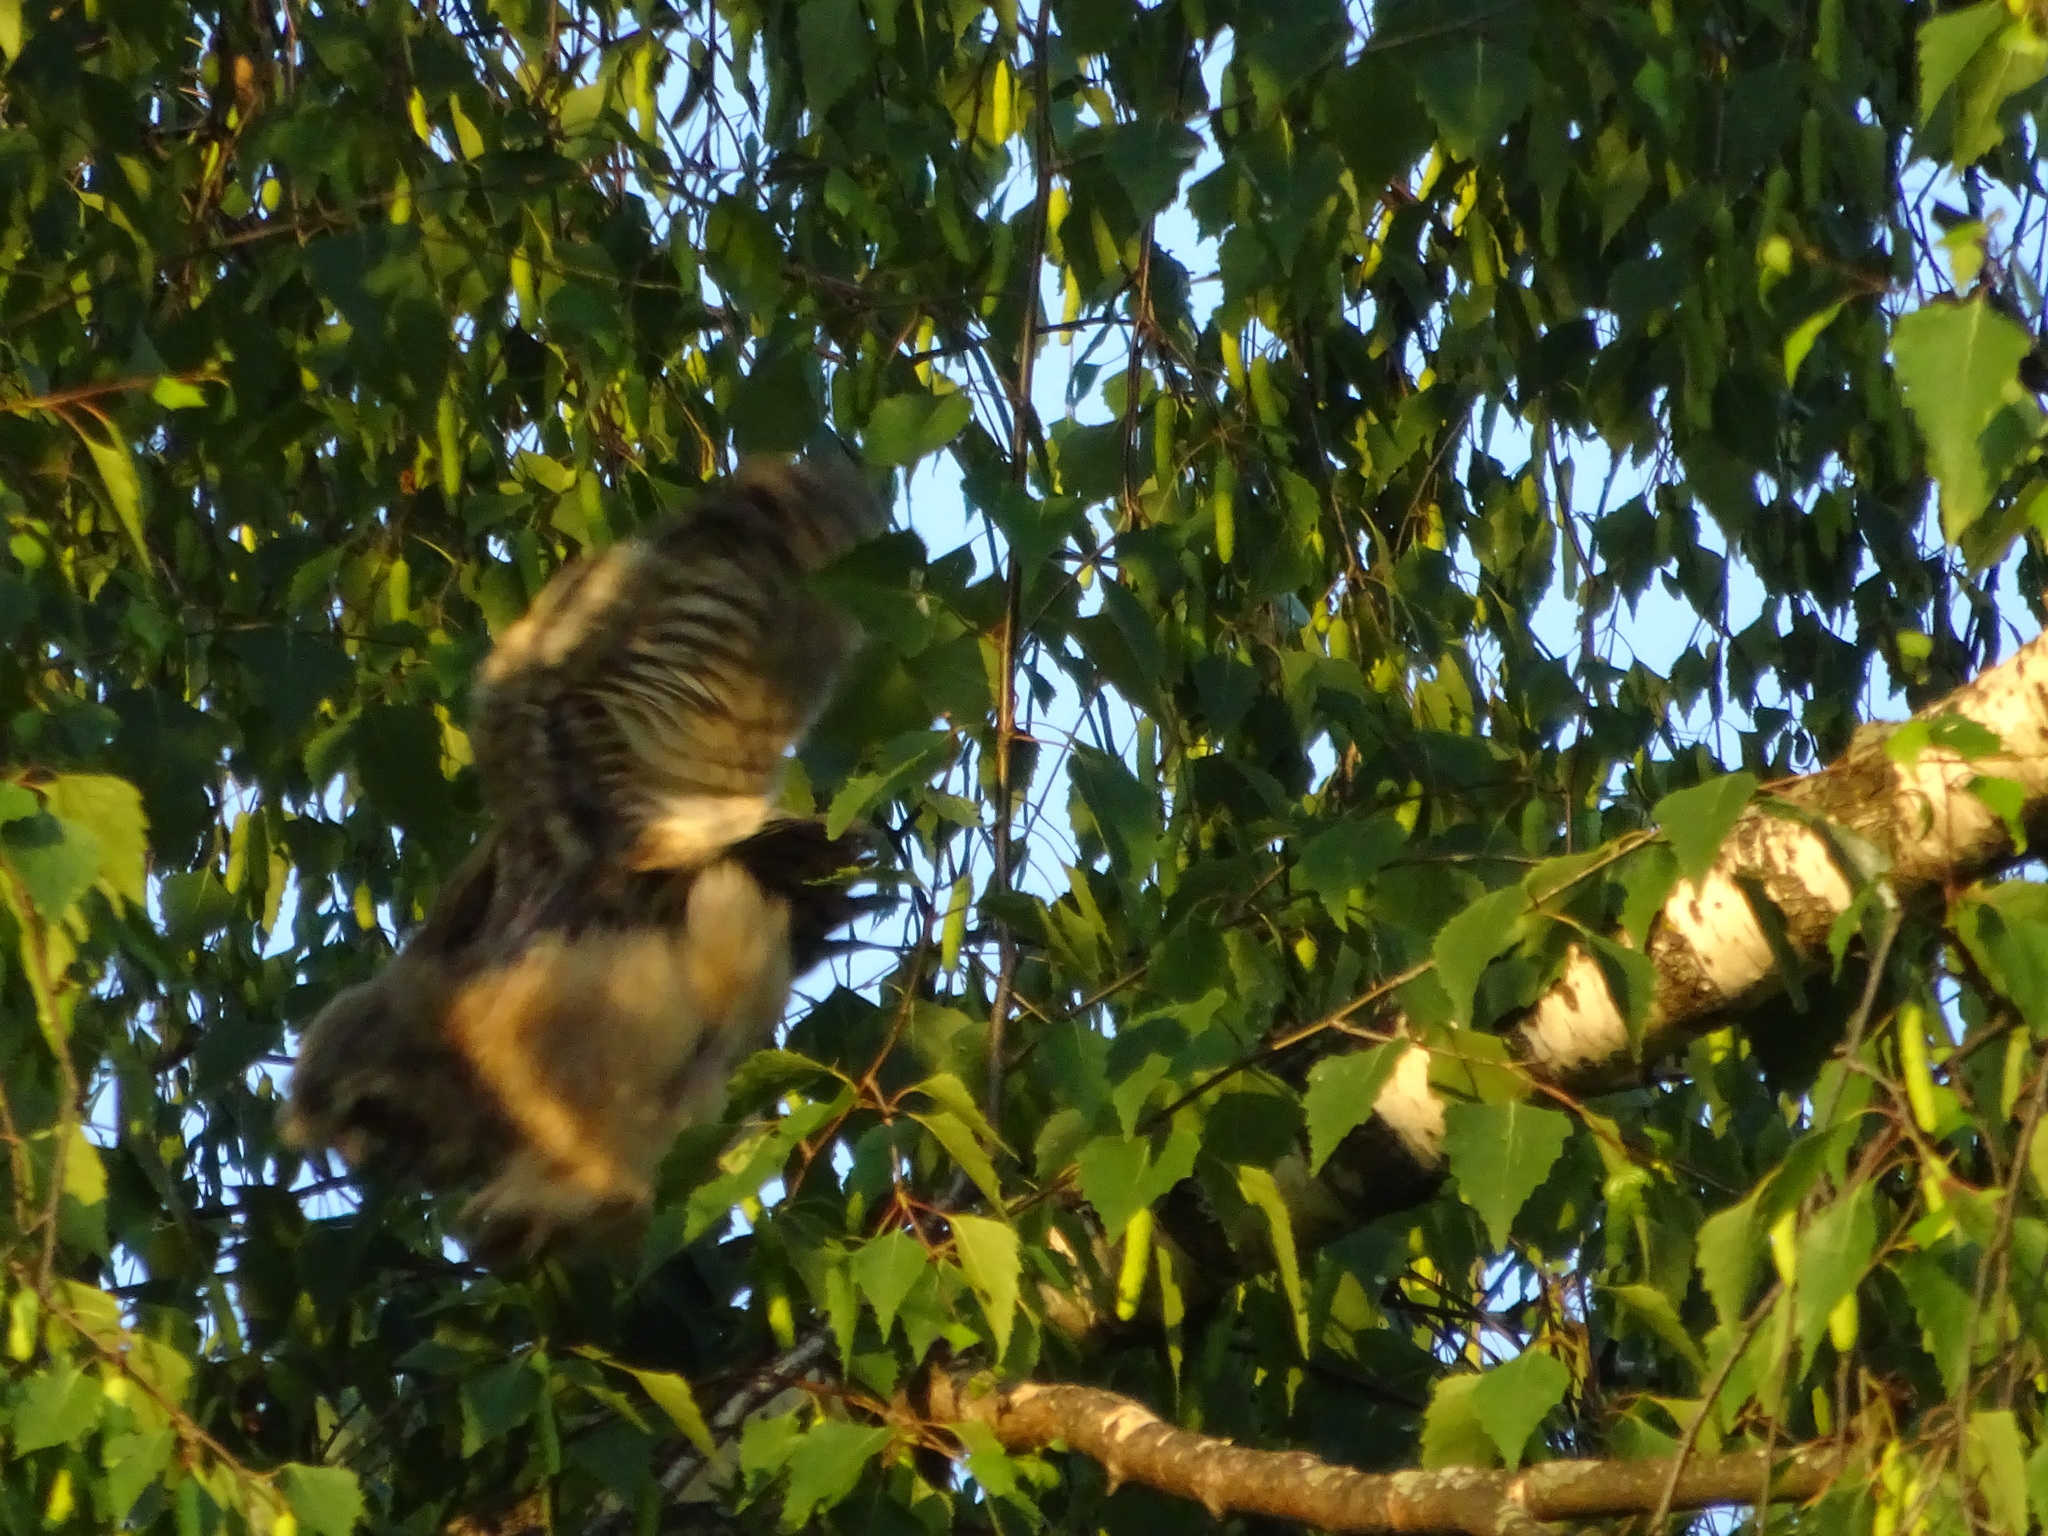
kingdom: Animalia
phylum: Chordata
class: Aves
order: Strigiformes
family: Strigidae
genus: Asio
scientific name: Asio otus
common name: Long-eared owl
